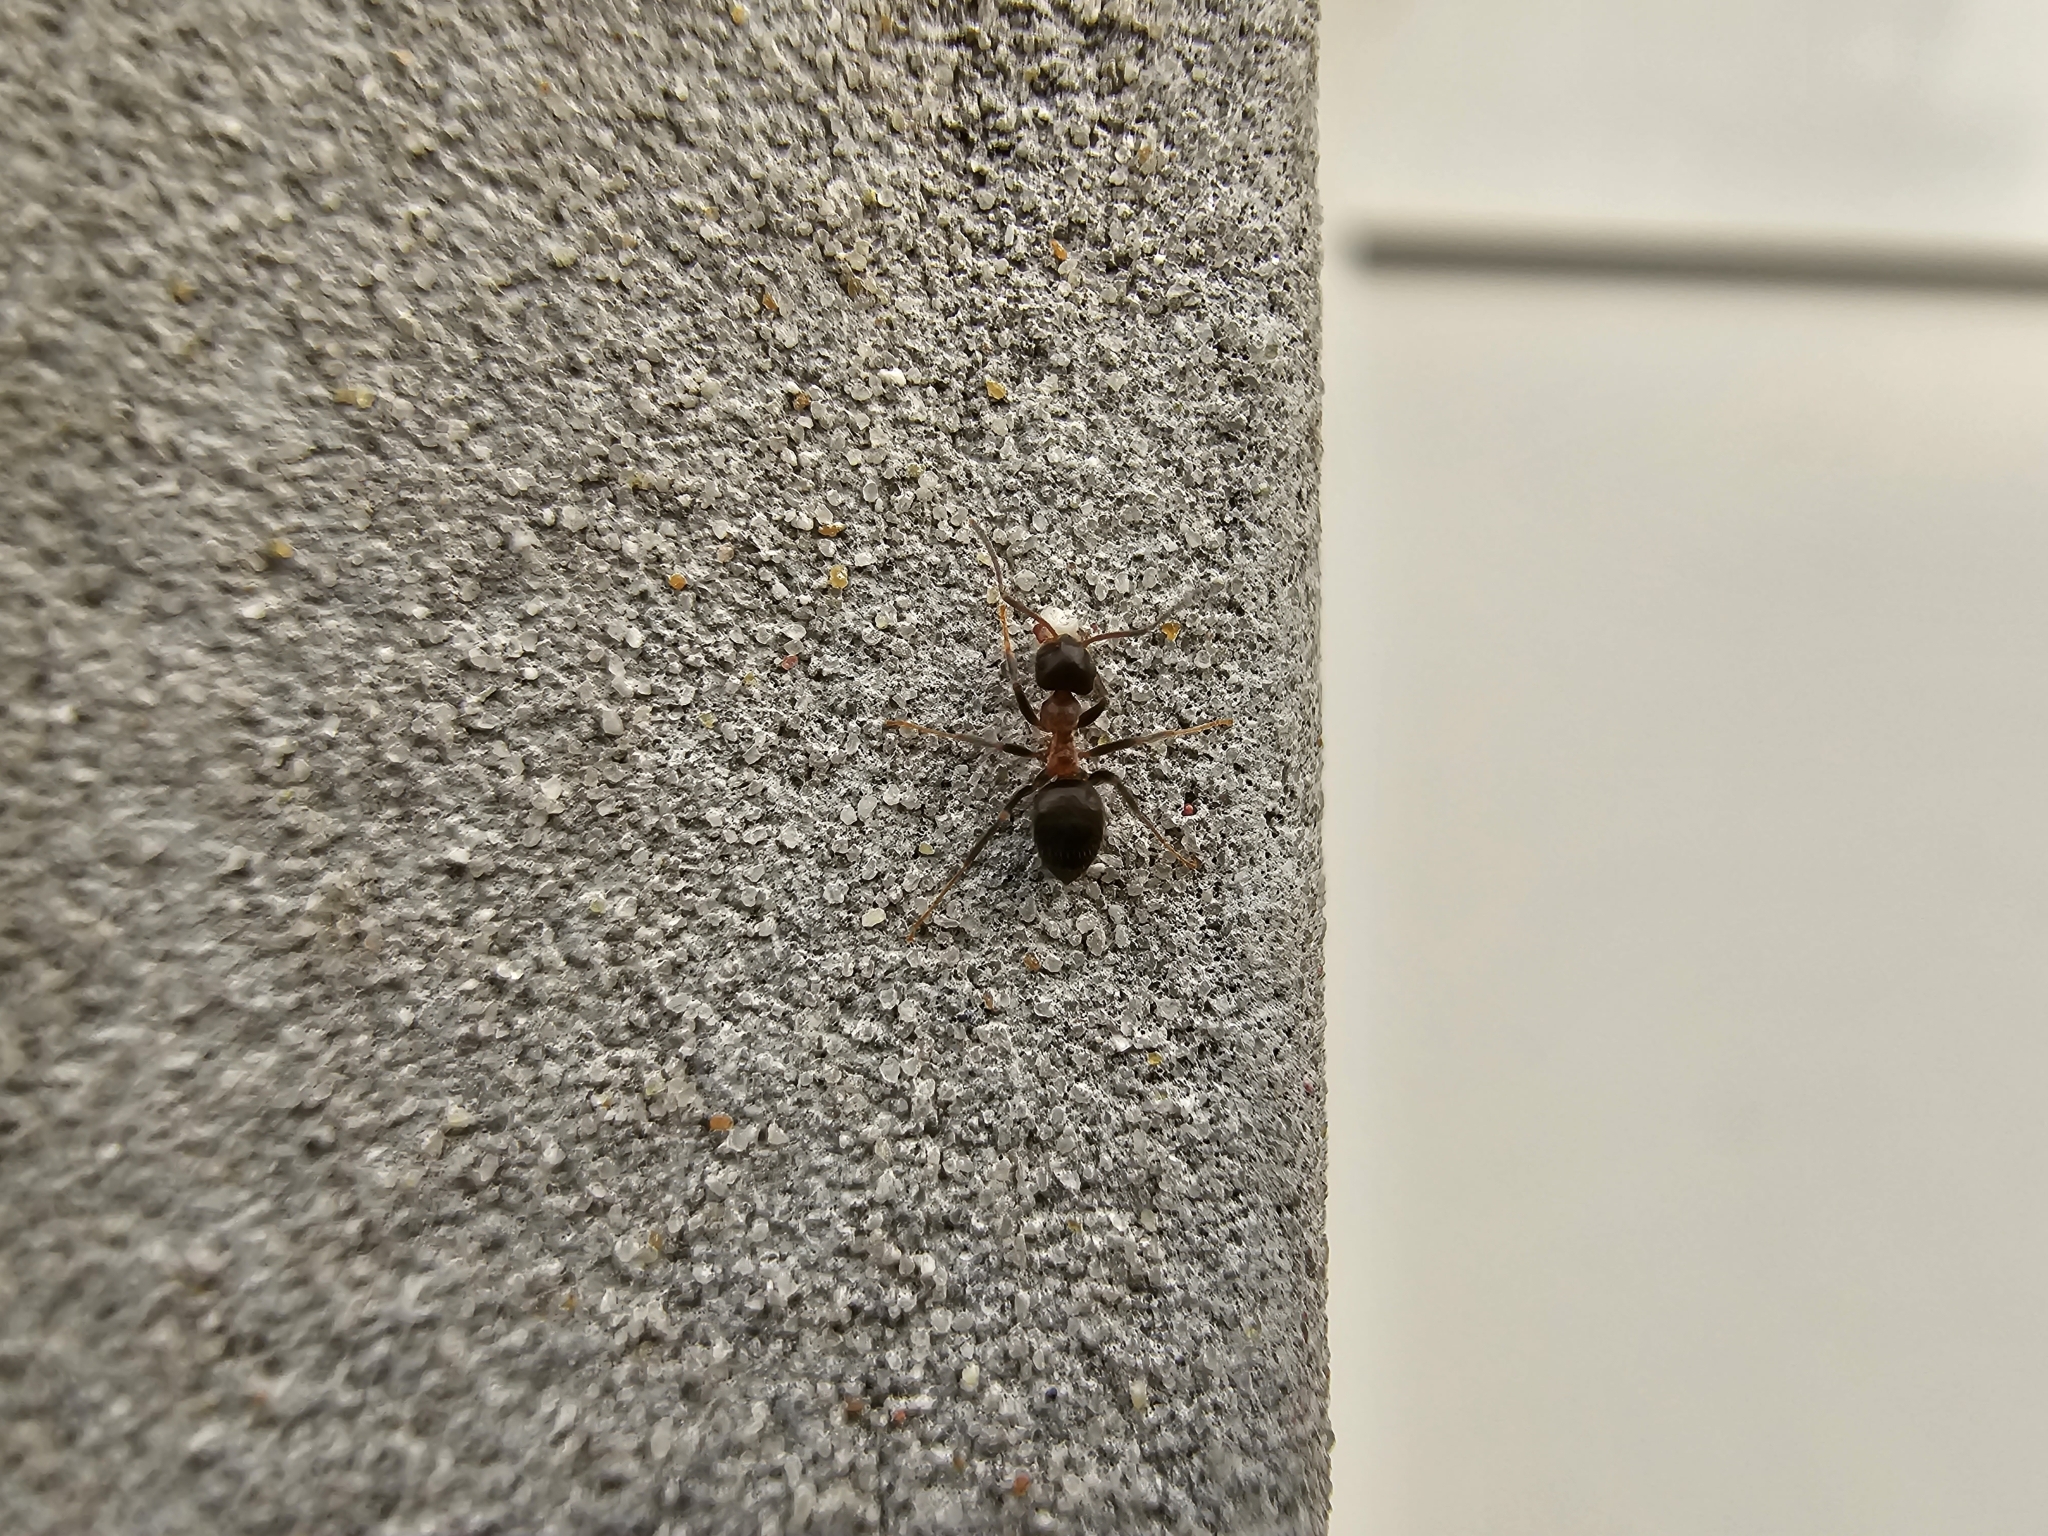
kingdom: Animalia
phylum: Arthropoda
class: Insecta
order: Hymenoptera
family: Formicidae
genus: Lasius
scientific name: Lasius emarginatus
